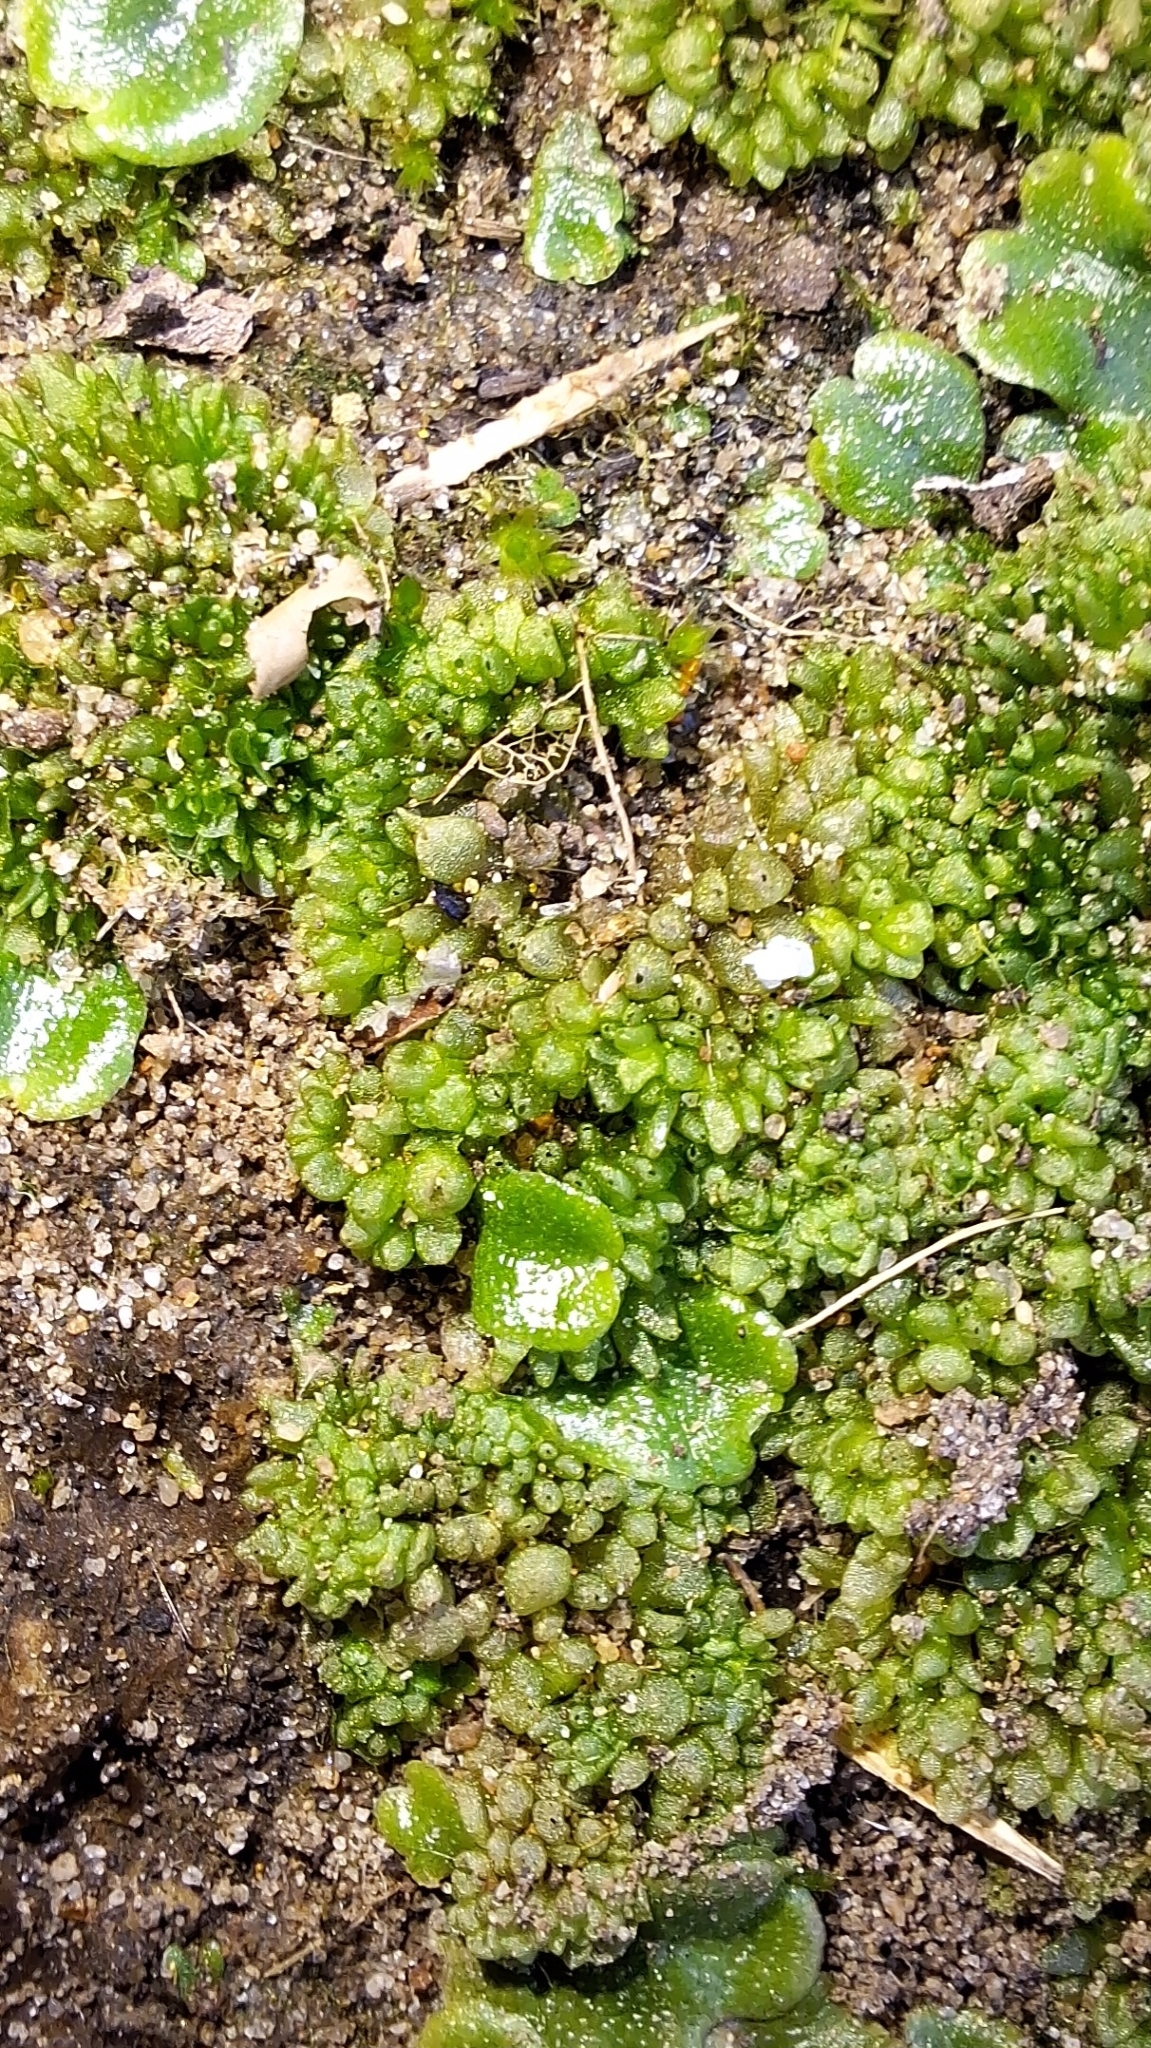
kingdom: Plantae
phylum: Marchantiophyta
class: Marchantiopsida
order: Sphaerocarpales
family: Sphaerocarpaceae
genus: Sphaerocarpos
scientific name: Sphaerocarpos texanus
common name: Texas balloonwort
